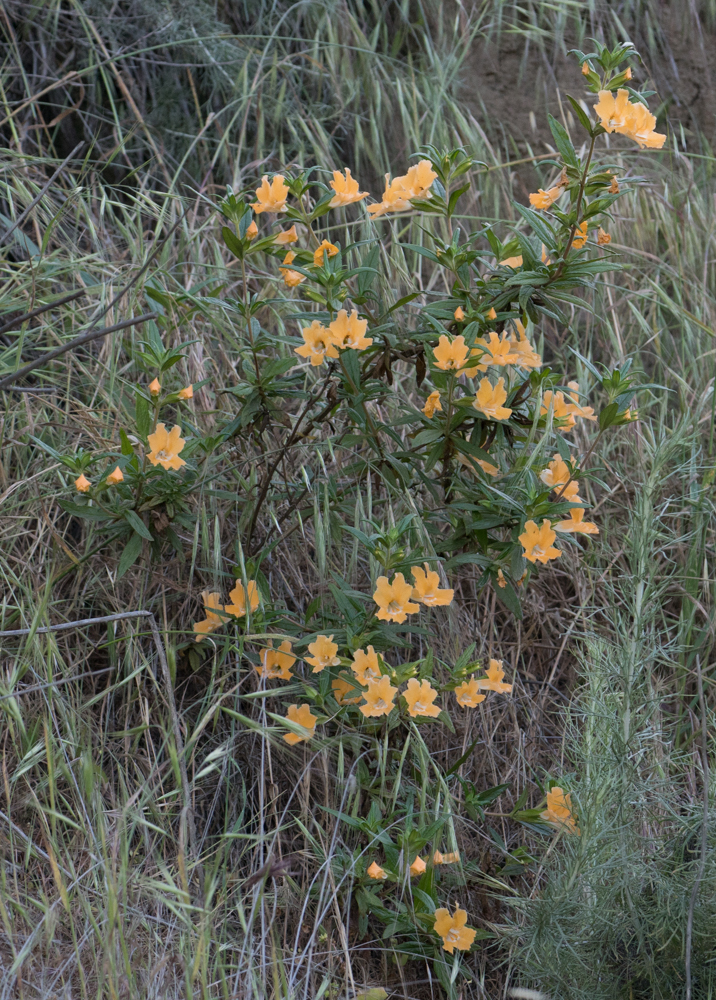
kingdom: Plantae
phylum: Tracheophyta
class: Magnoliopsida
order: Lamiales
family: Phrymaceae
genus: Diplacus
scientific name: Diplacus longiflorus
